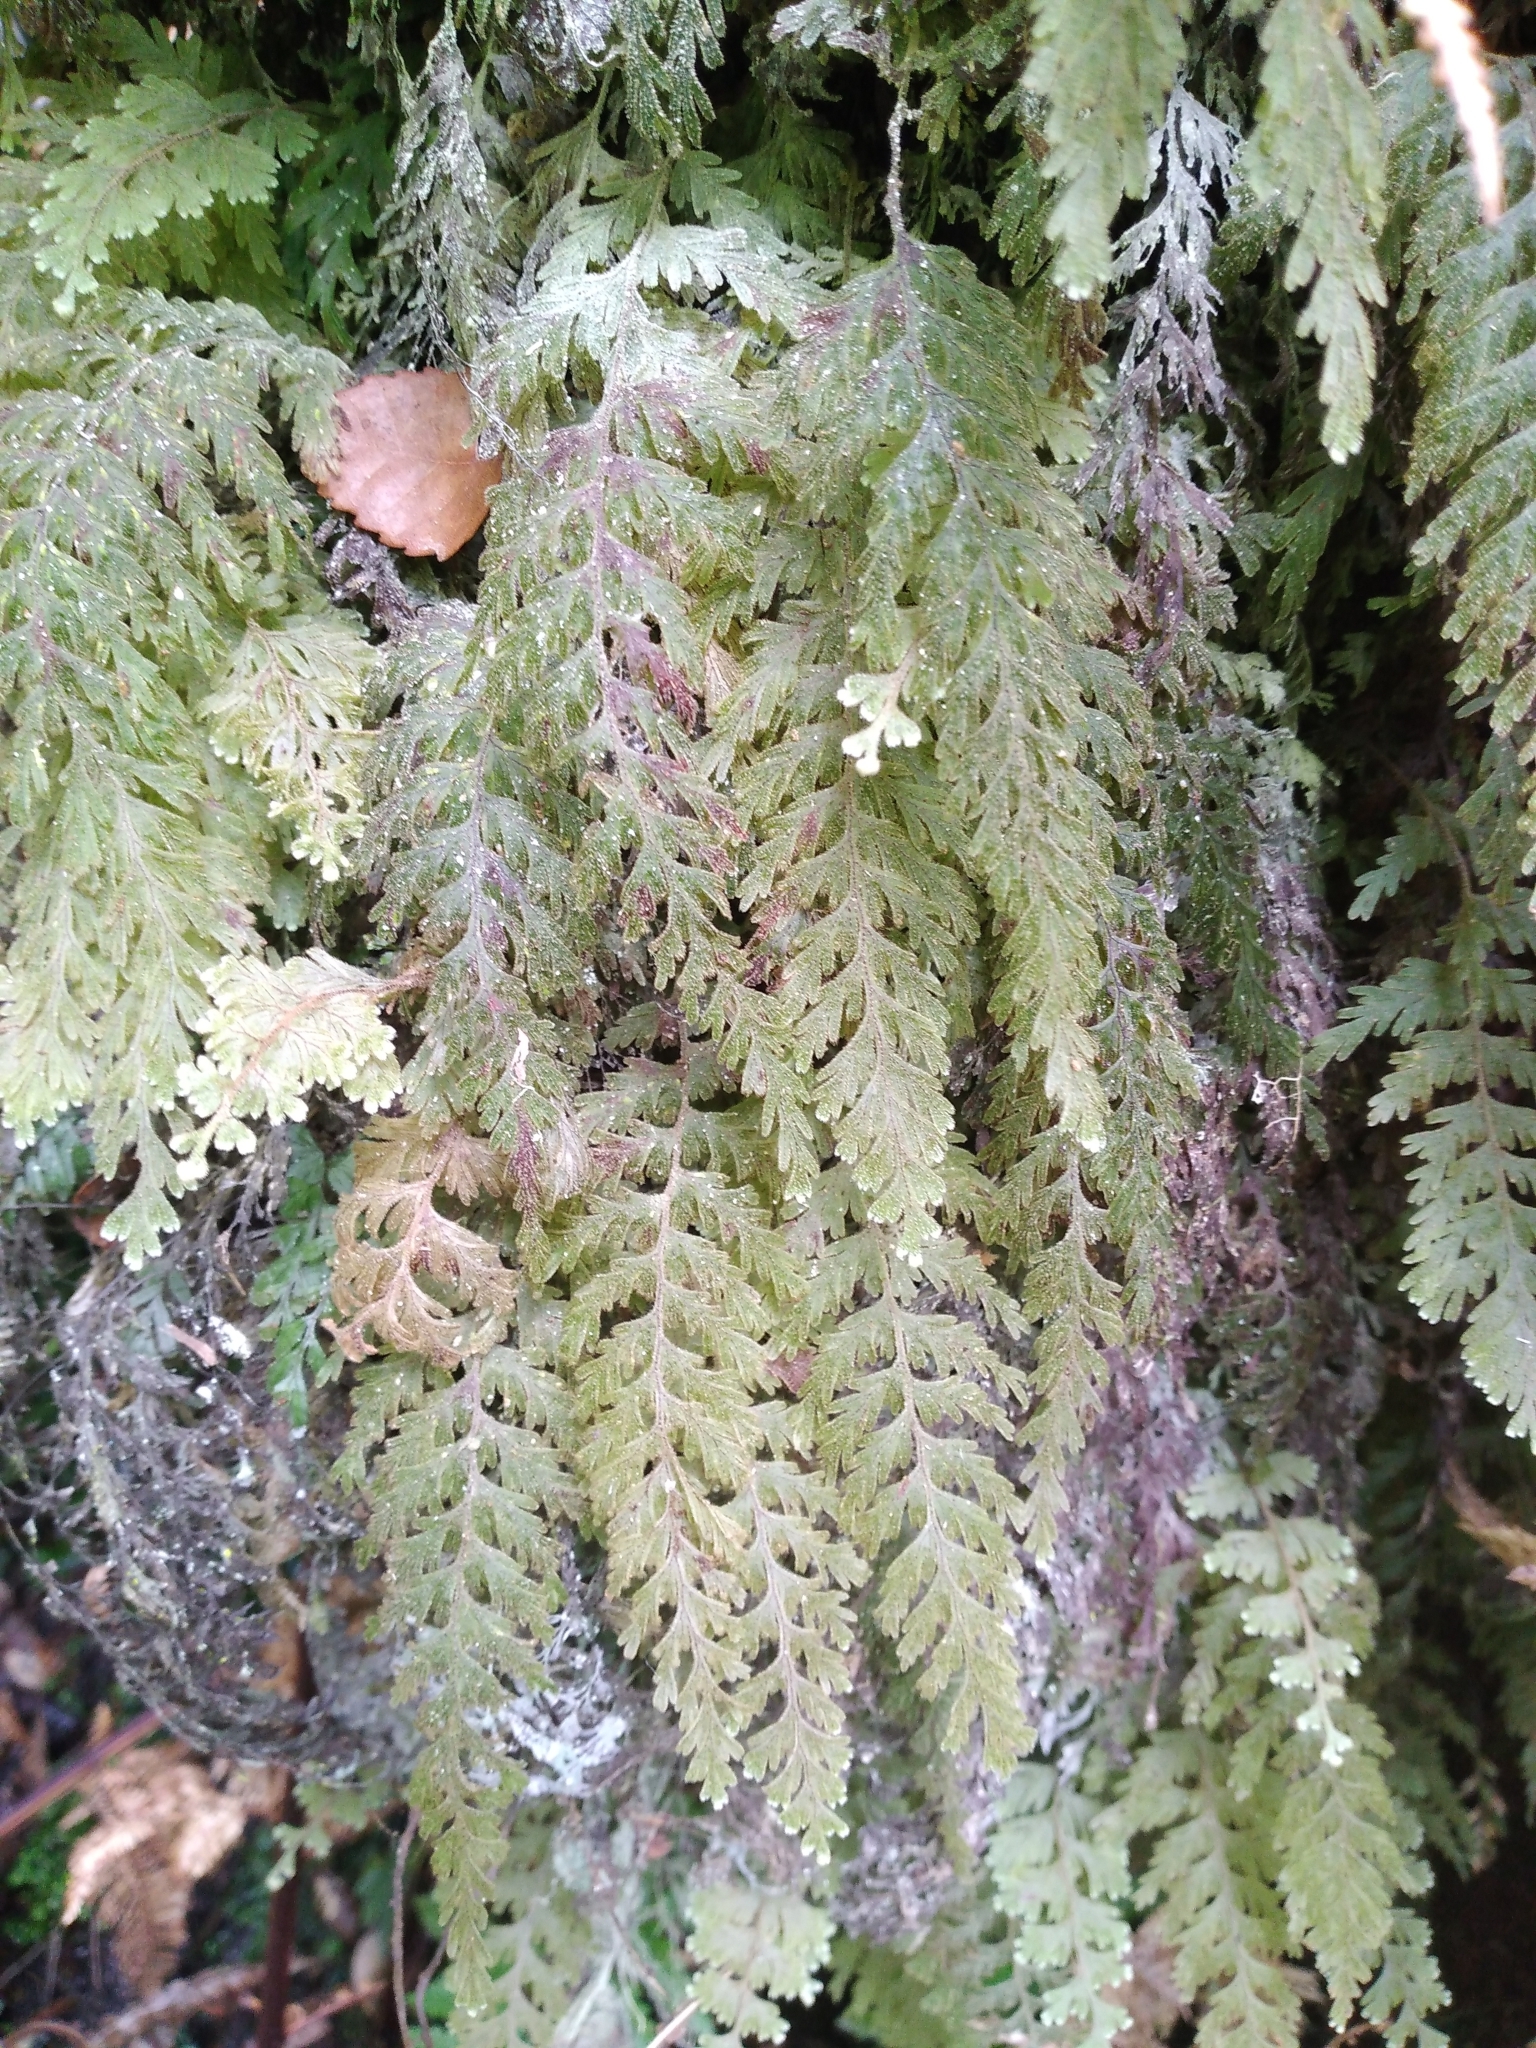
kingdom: Plantae
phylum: Tracheophyta
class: Polypodiopsida
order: Hymenophyllales
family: Hymenophyllaceae
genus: Hymenophyllum
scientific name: Hymenophyllum frankliniae
